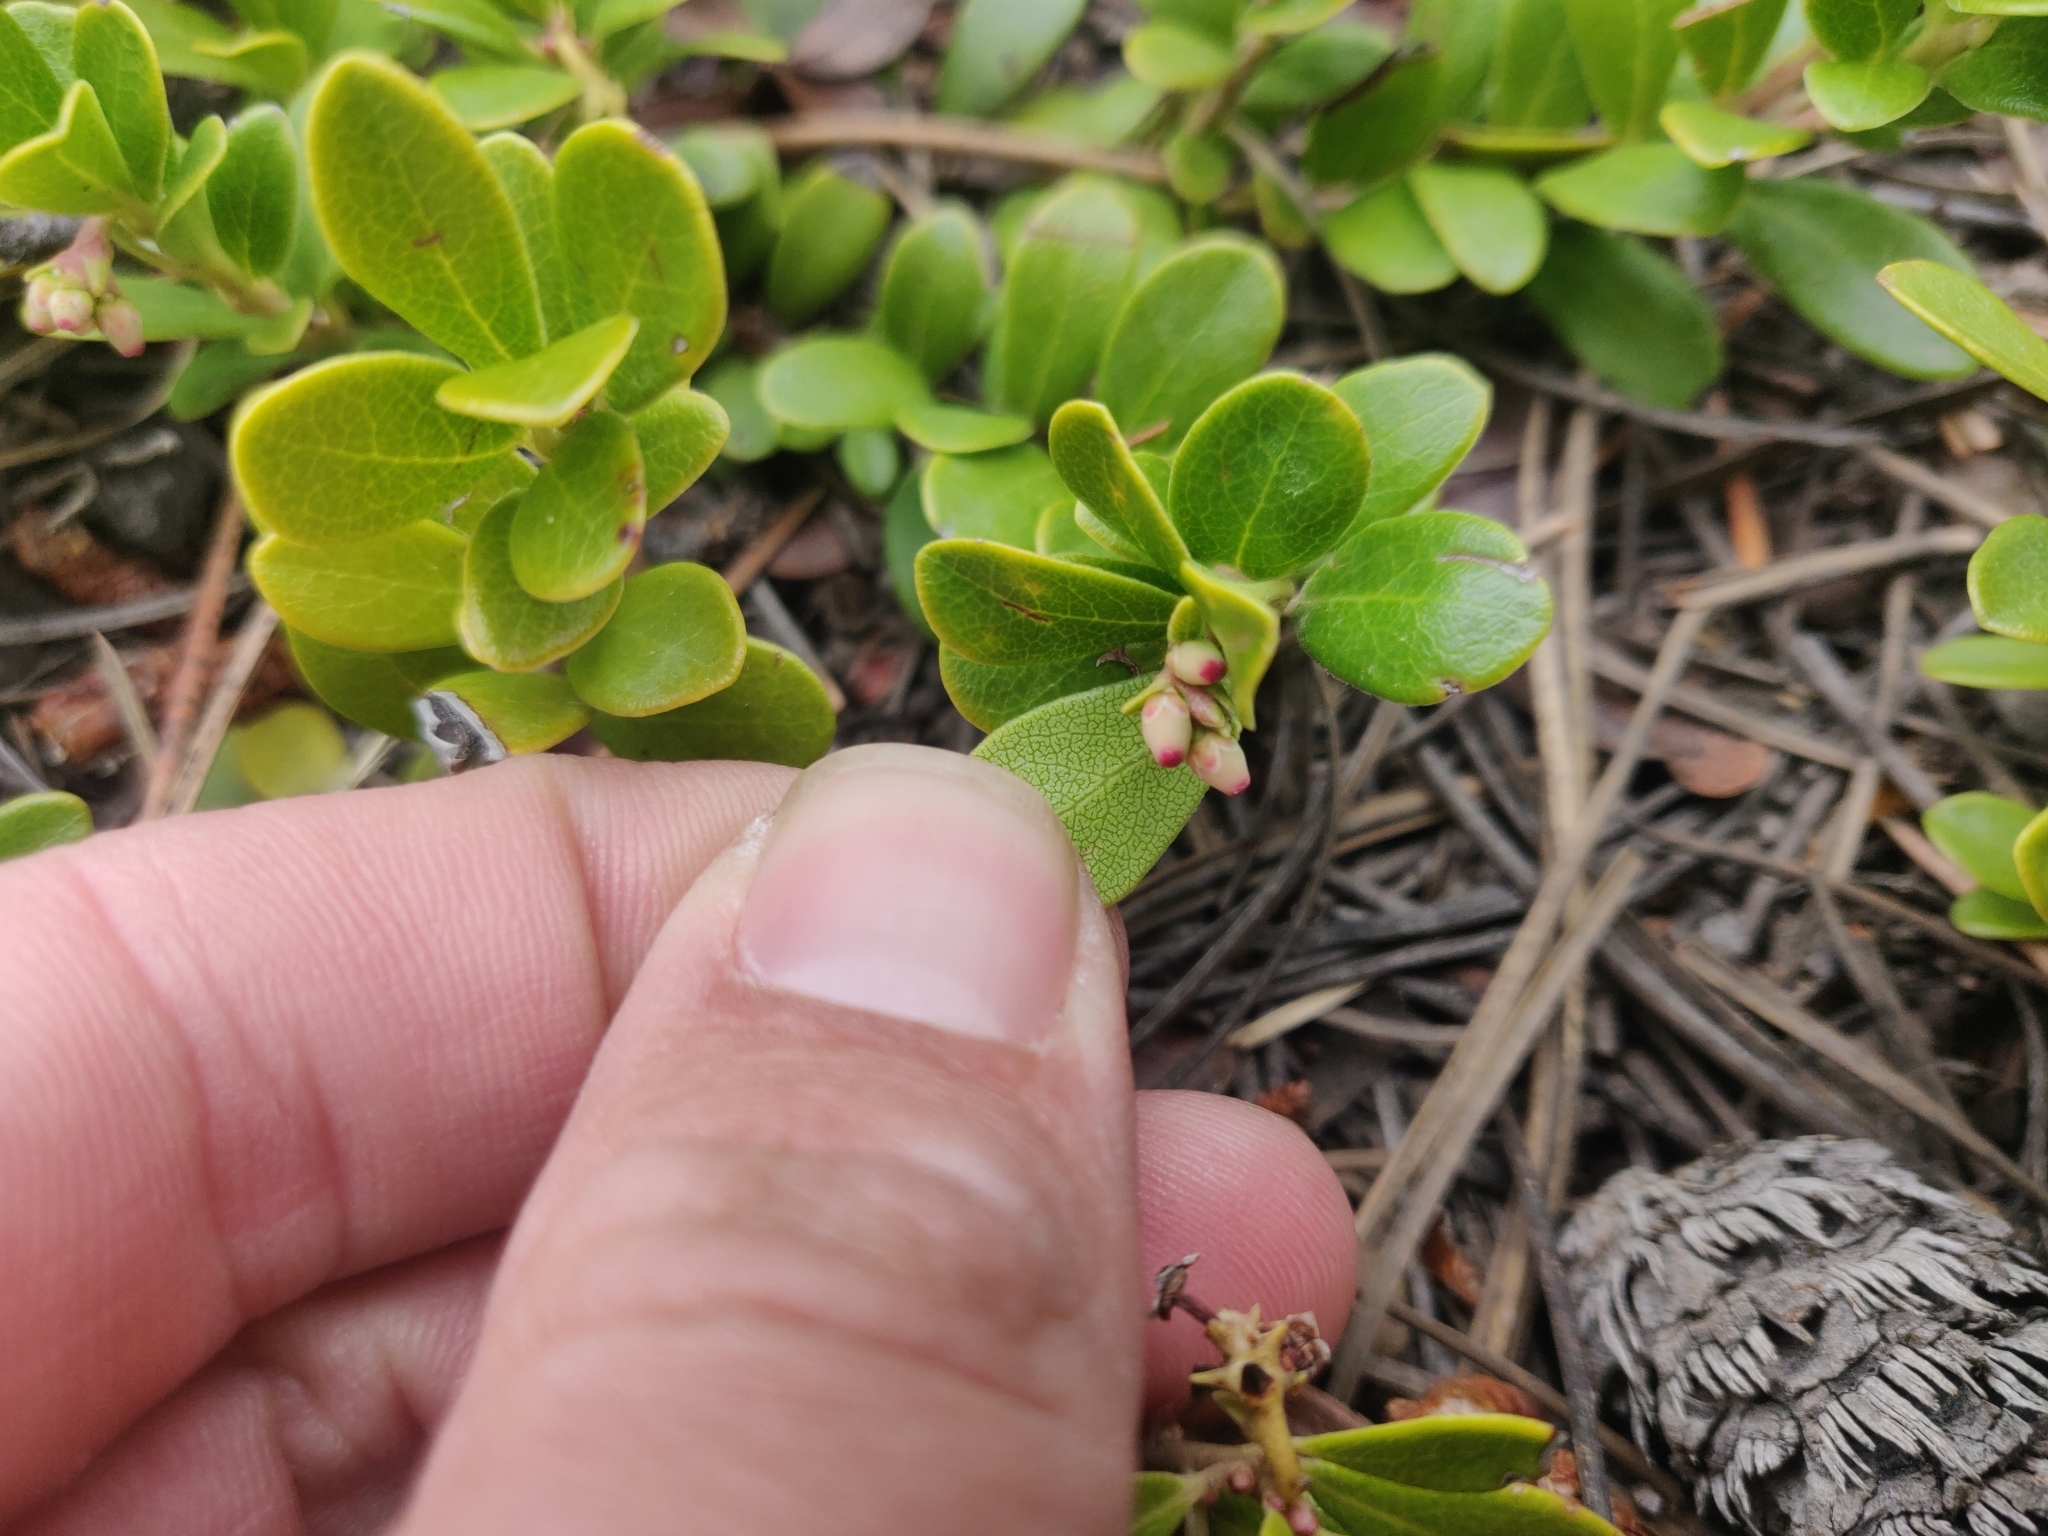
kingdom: Plantae
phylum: Tracheophyta
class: Magnoliopsida
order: Ericales
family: Ericaceae
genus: Arctostaphylos
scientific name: Arctostaphylos uva-ursi
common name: Bearberry
